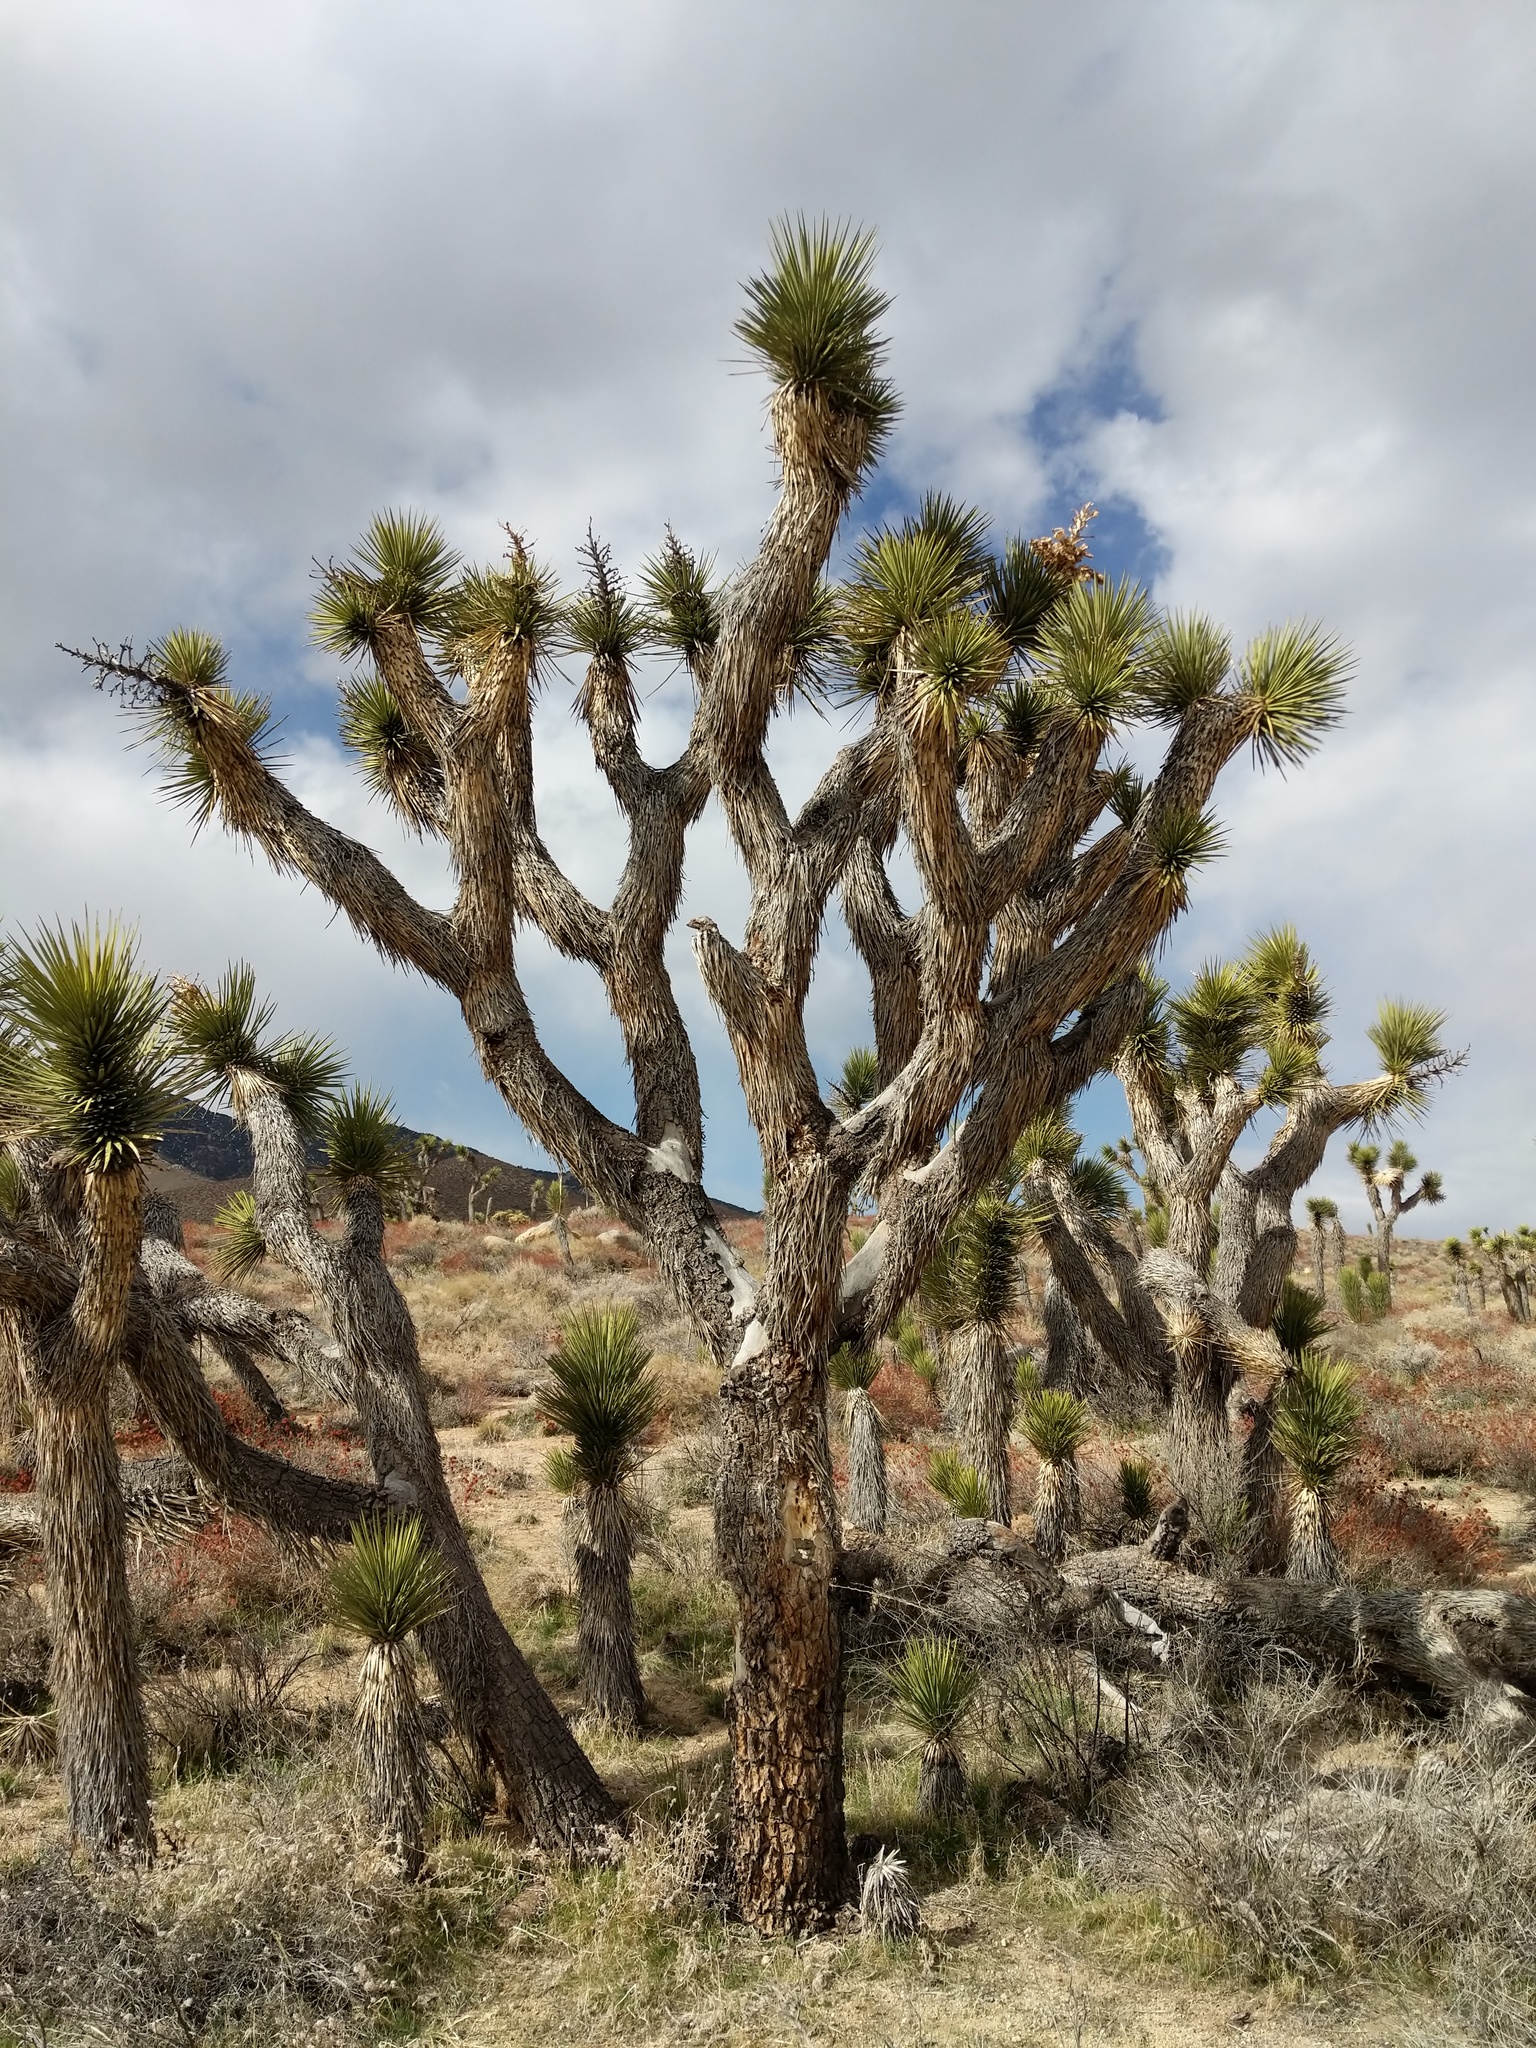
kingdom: Plantae
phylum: Tracheophyta
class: Liliopsida
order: Asparagales
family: Asparagaceae
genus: Yucca
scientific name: Yucca brevifolia
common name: Joshua tree
